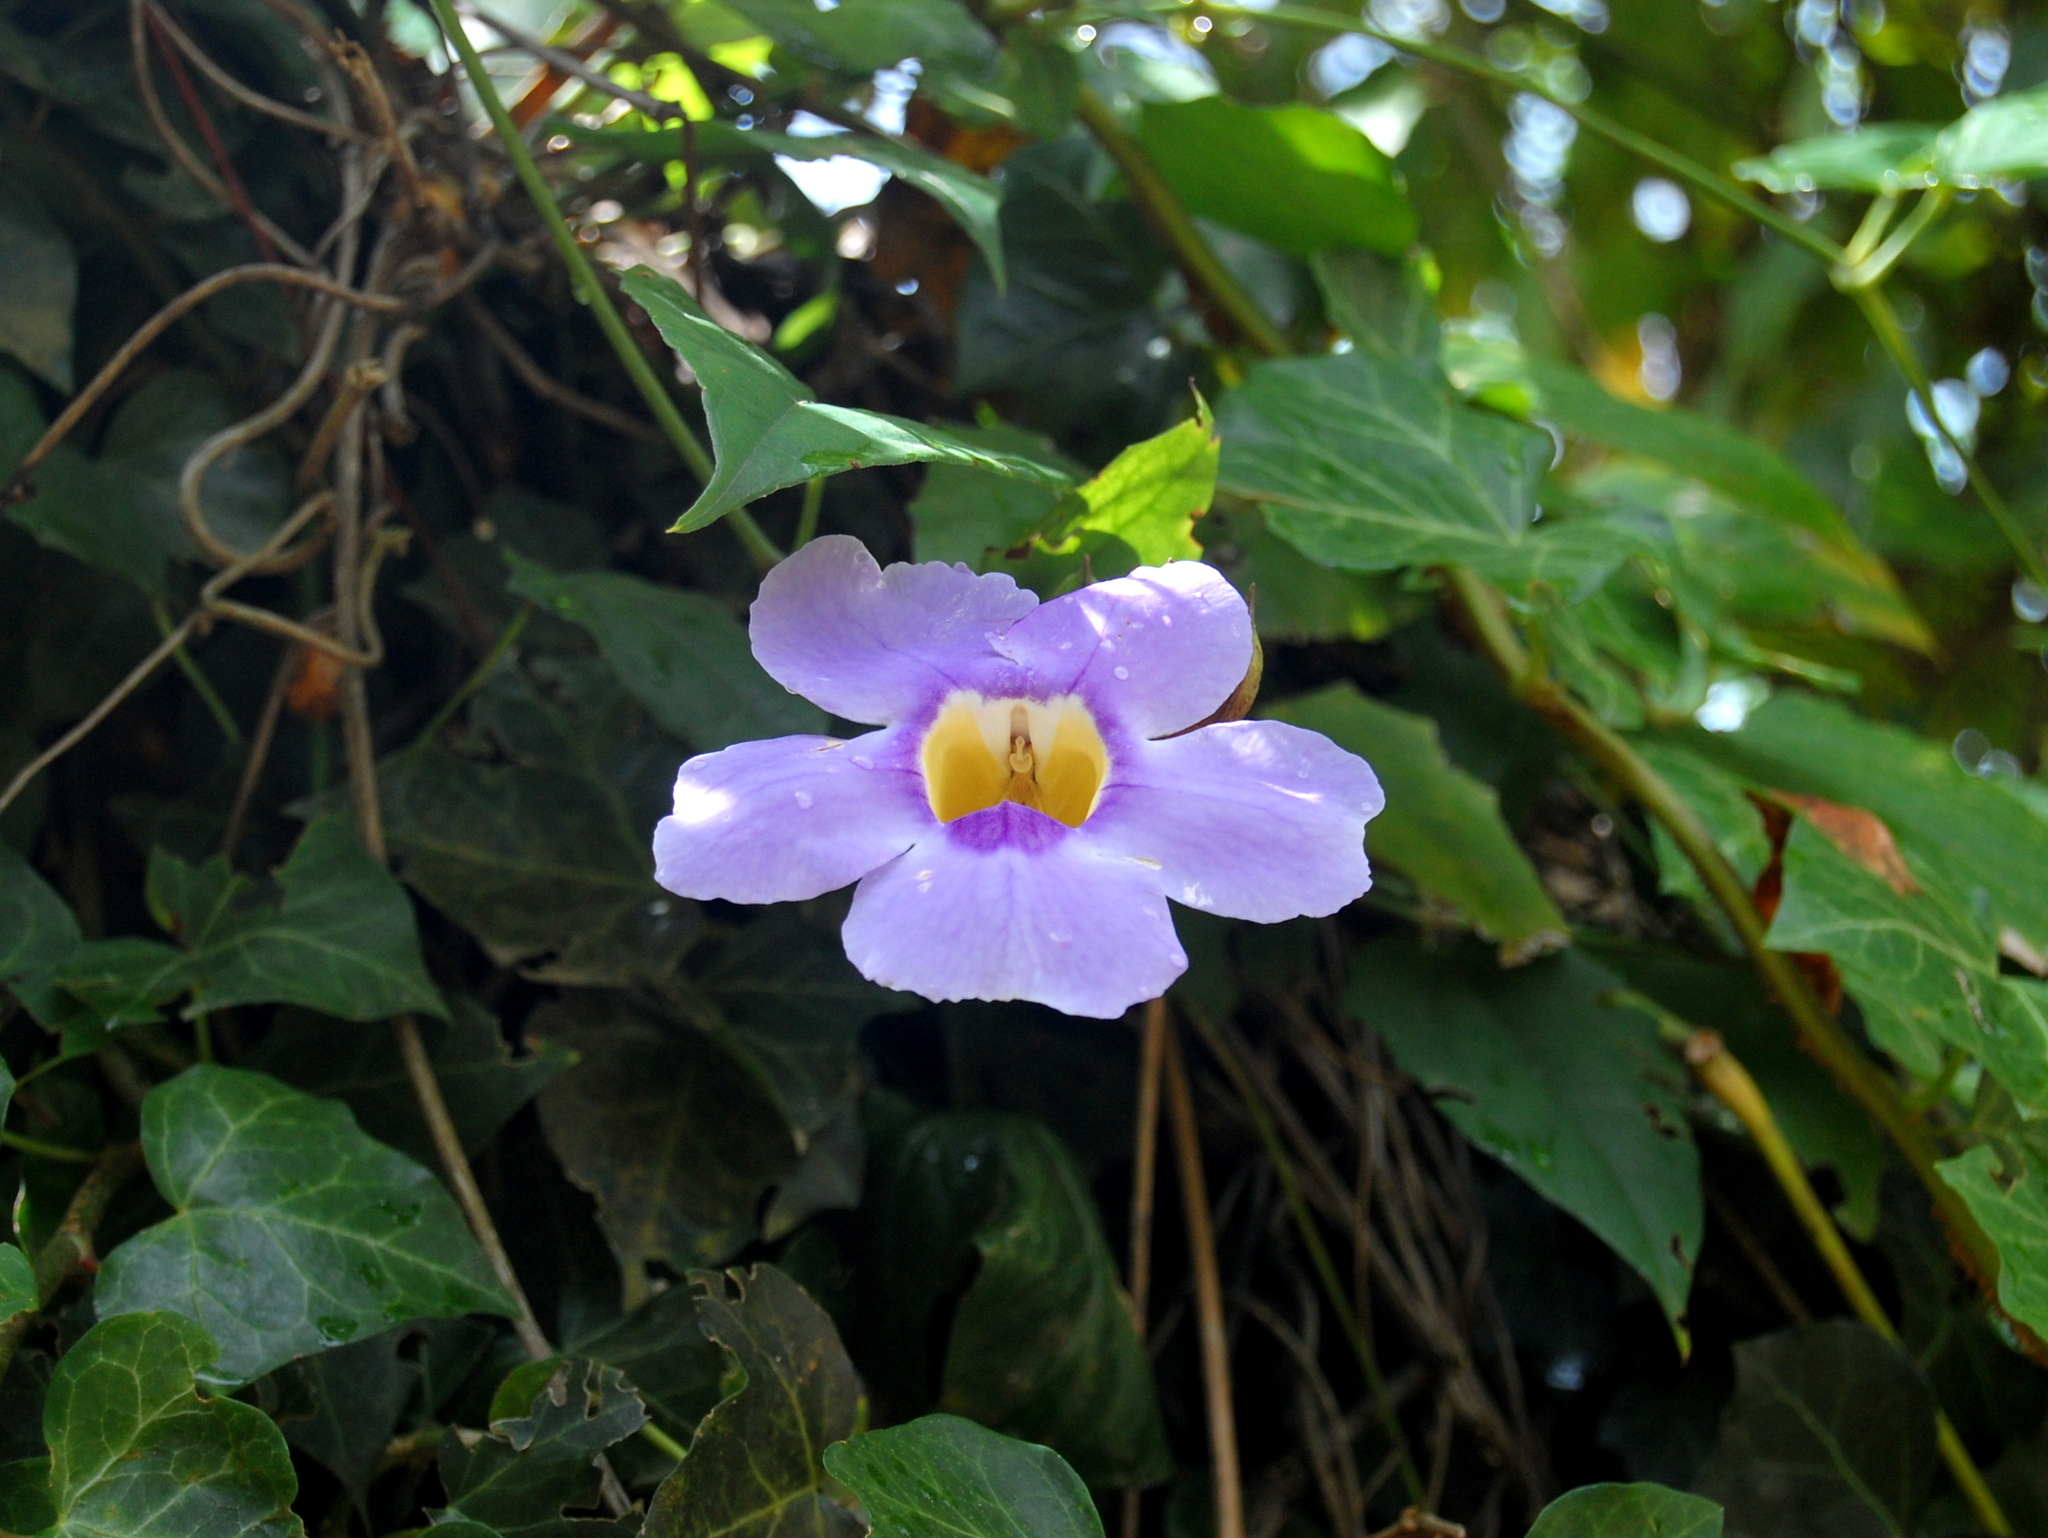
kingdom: Plantae
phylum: Tracheophyta
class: Magnoliopsida
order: Lamiales
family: Acanthaceae
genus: Thunbergia
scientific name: Thunbergia grandiflora
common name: Bengal trumpet
